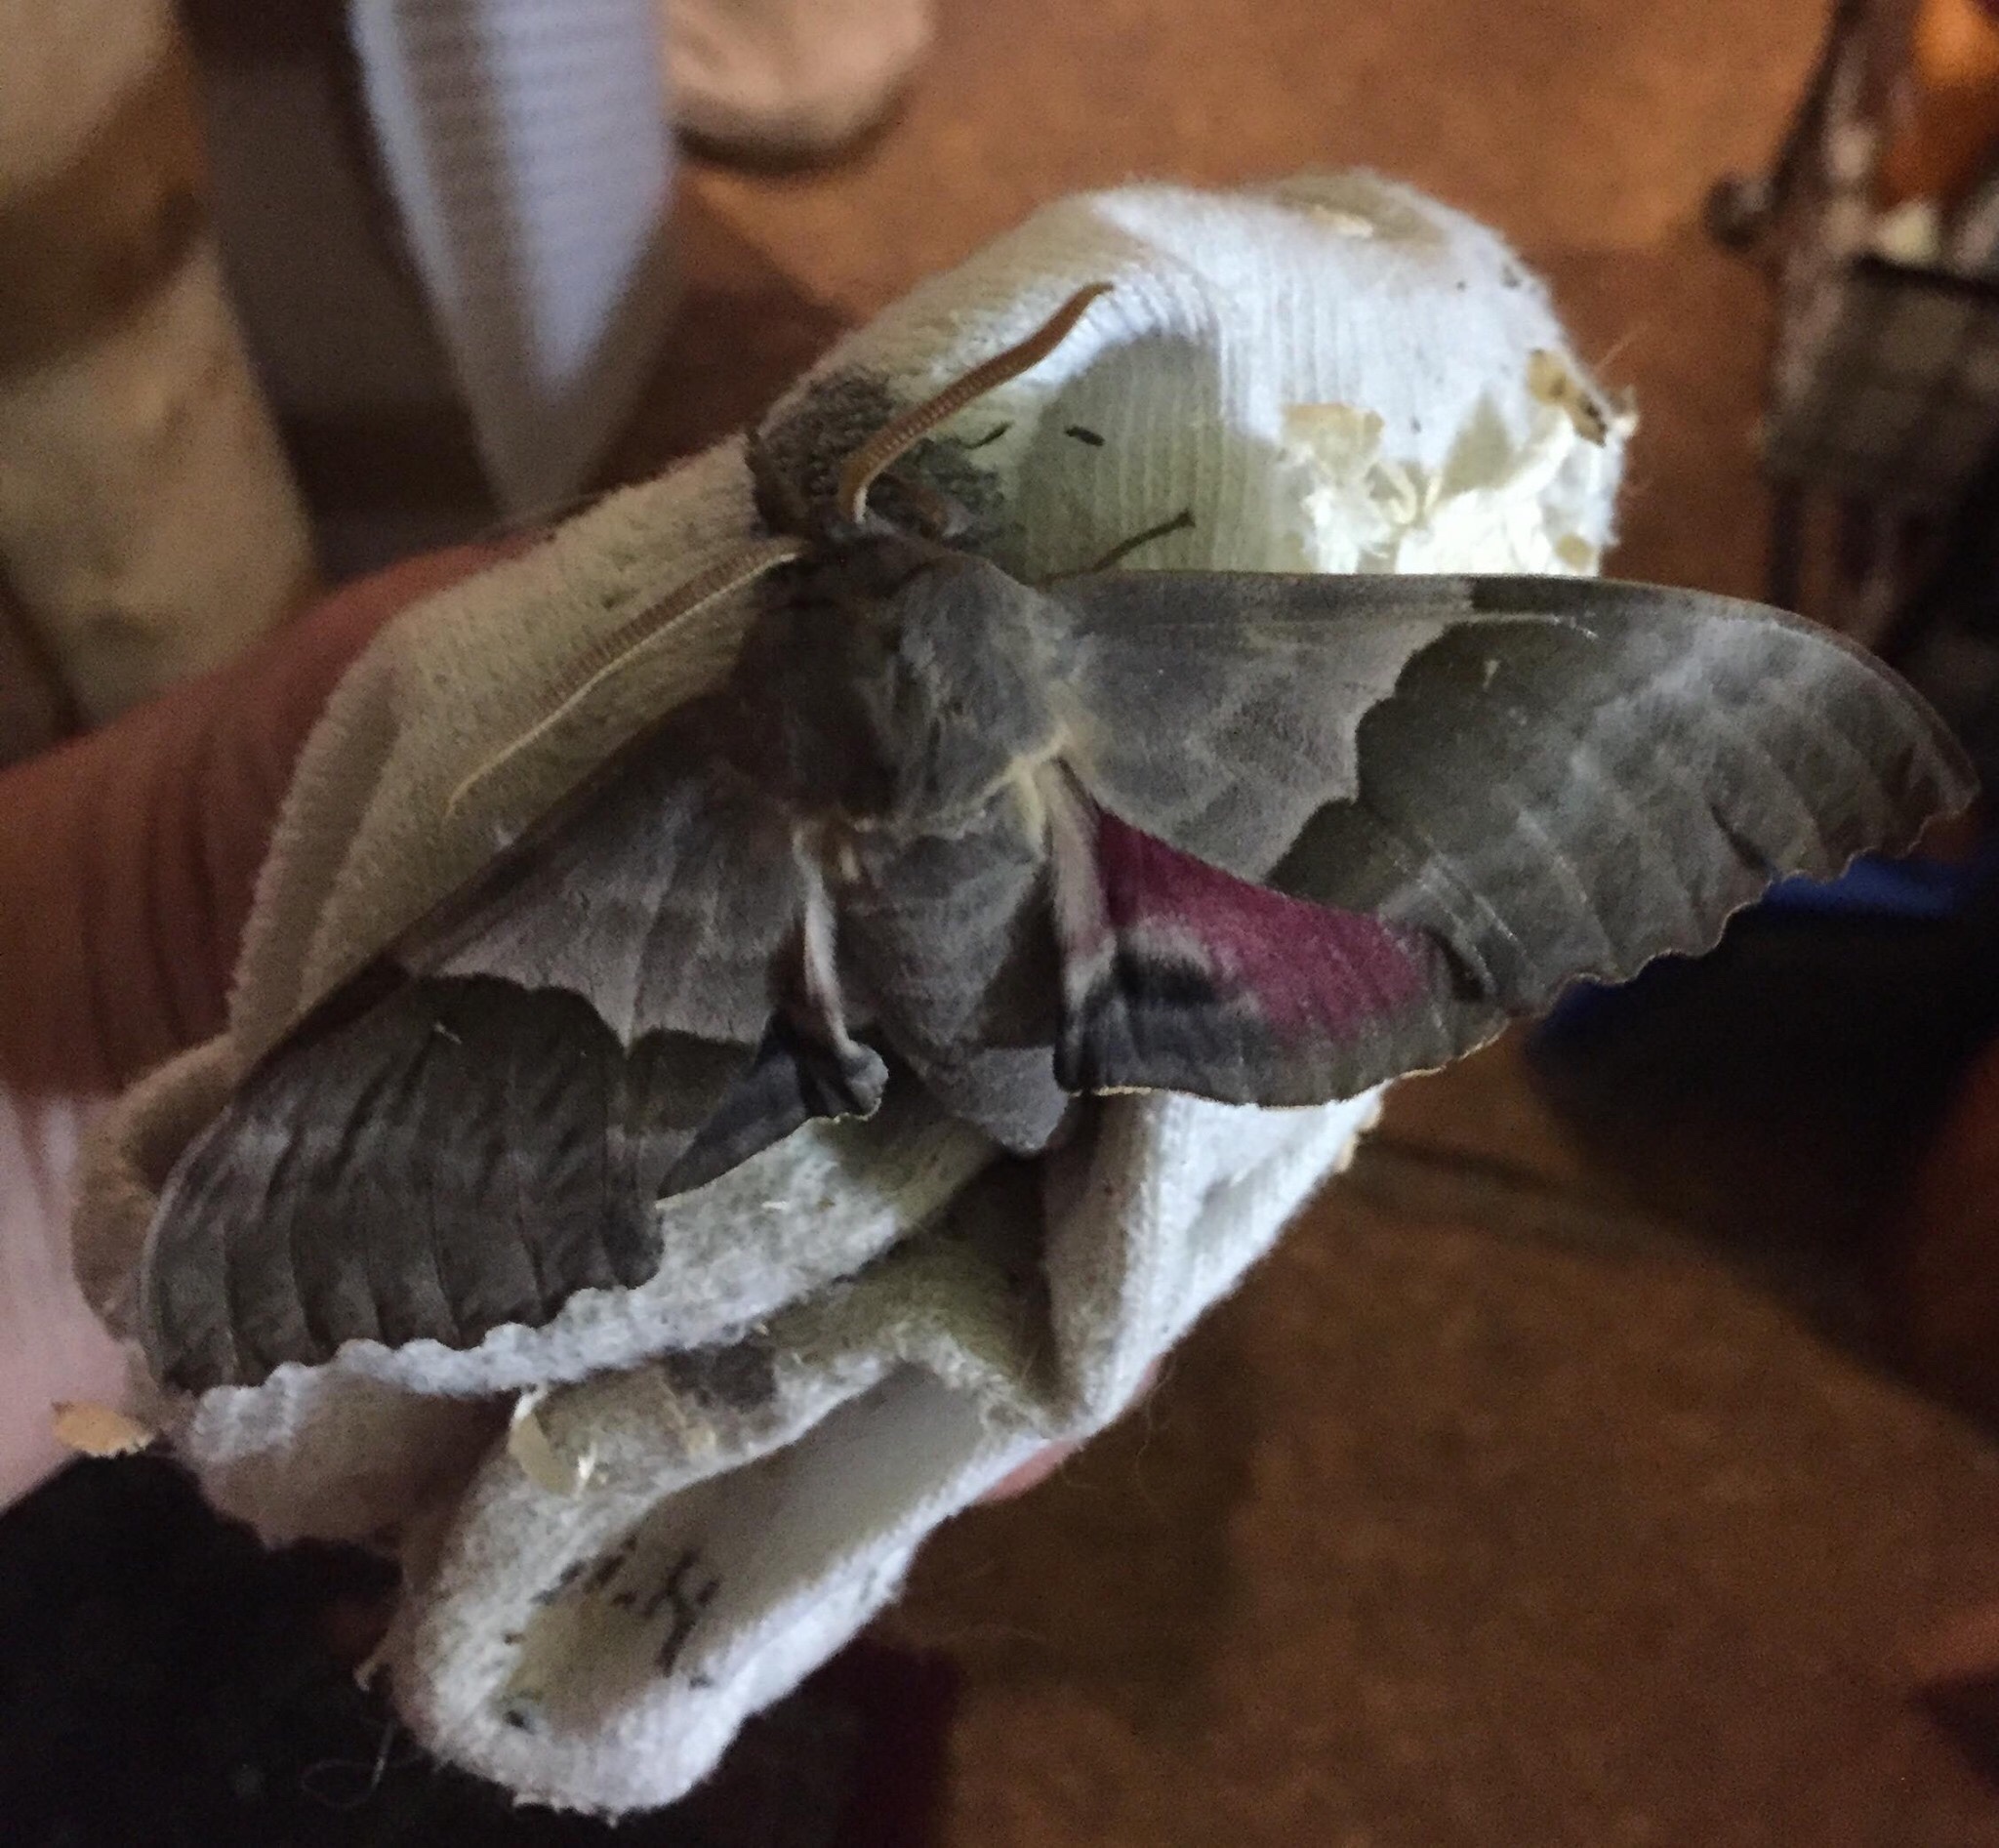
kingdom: Animalia
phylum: Arthropoda
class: Insecta
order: Lepidoptera
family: Sphingidae
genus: Pachysphinx
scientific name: Pachysphinx modesta
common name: Big poplar sphinx
